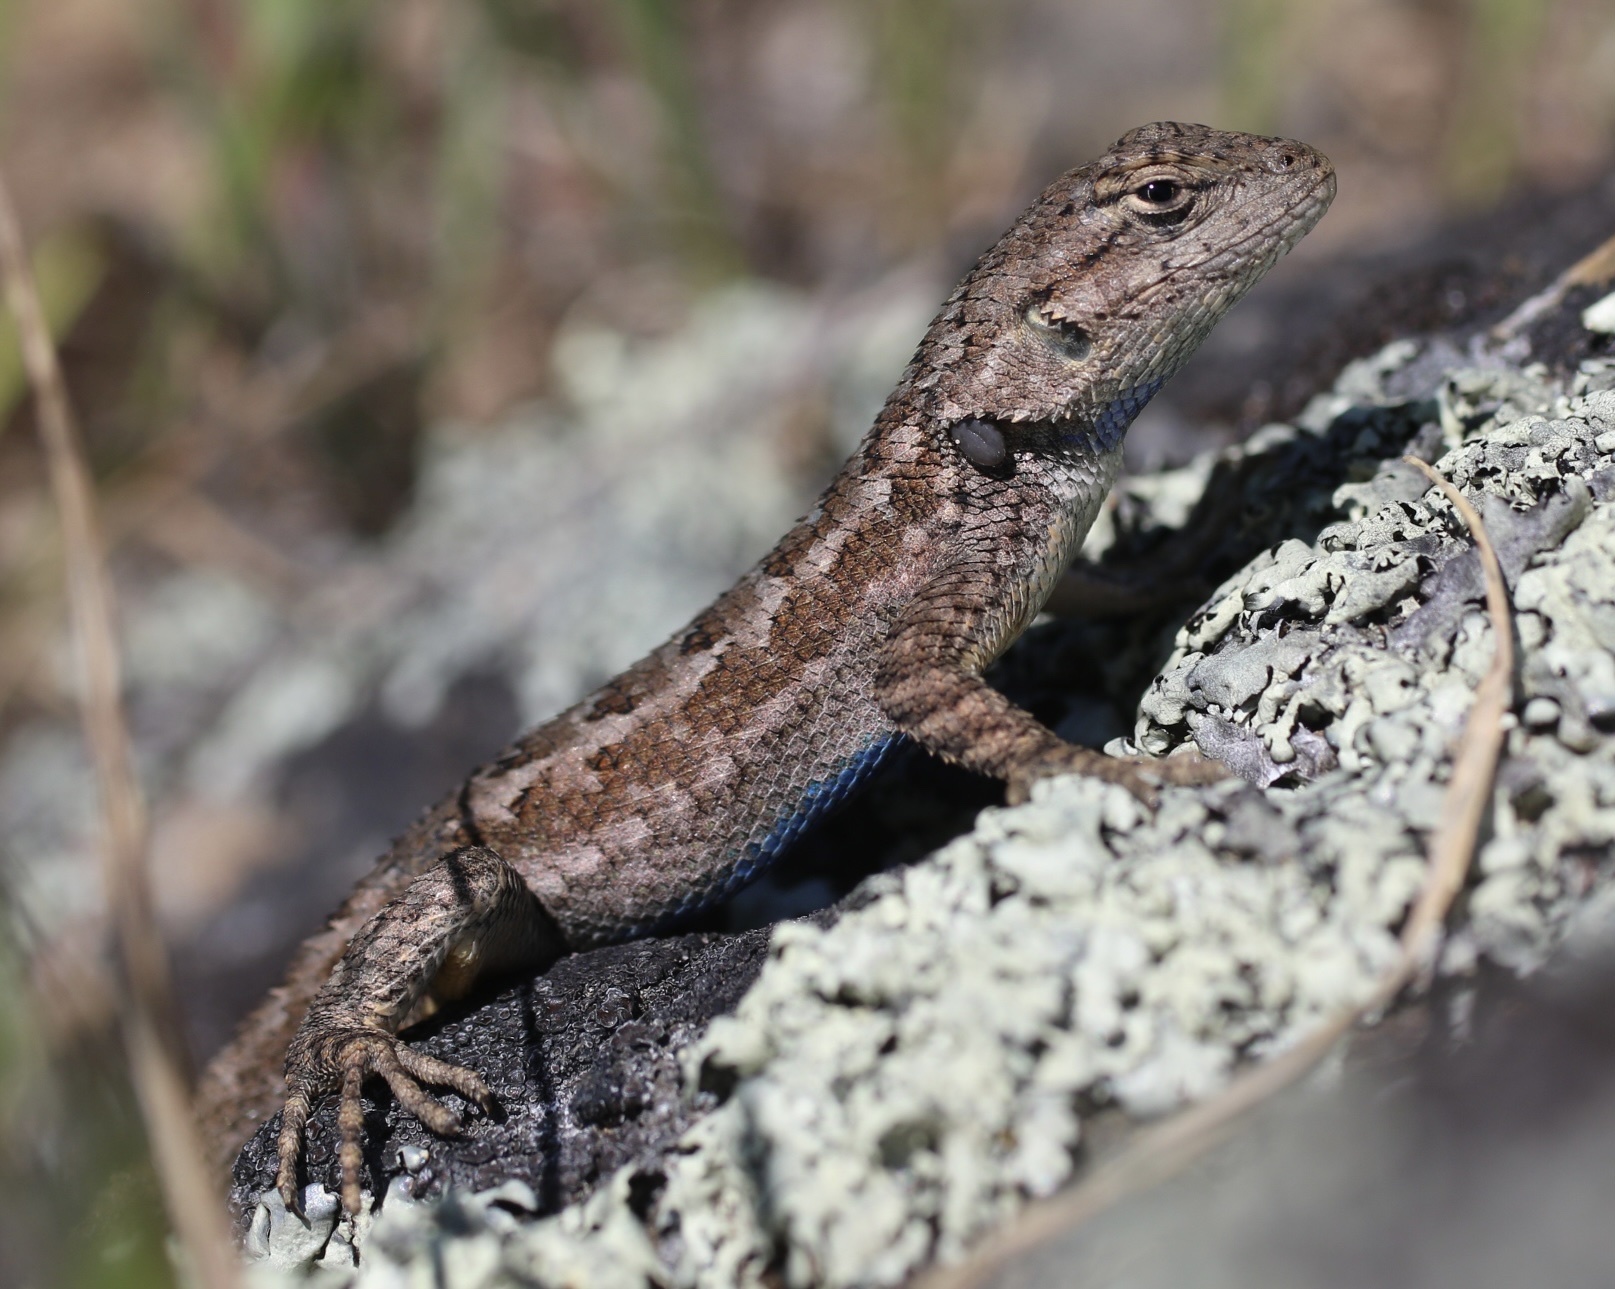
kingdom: Animalia
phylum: Chordata
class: Squamata
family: Phrynosomatidae
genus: Sceloporus
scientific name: Sceloporus occidentalis
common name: Western fence lizard
